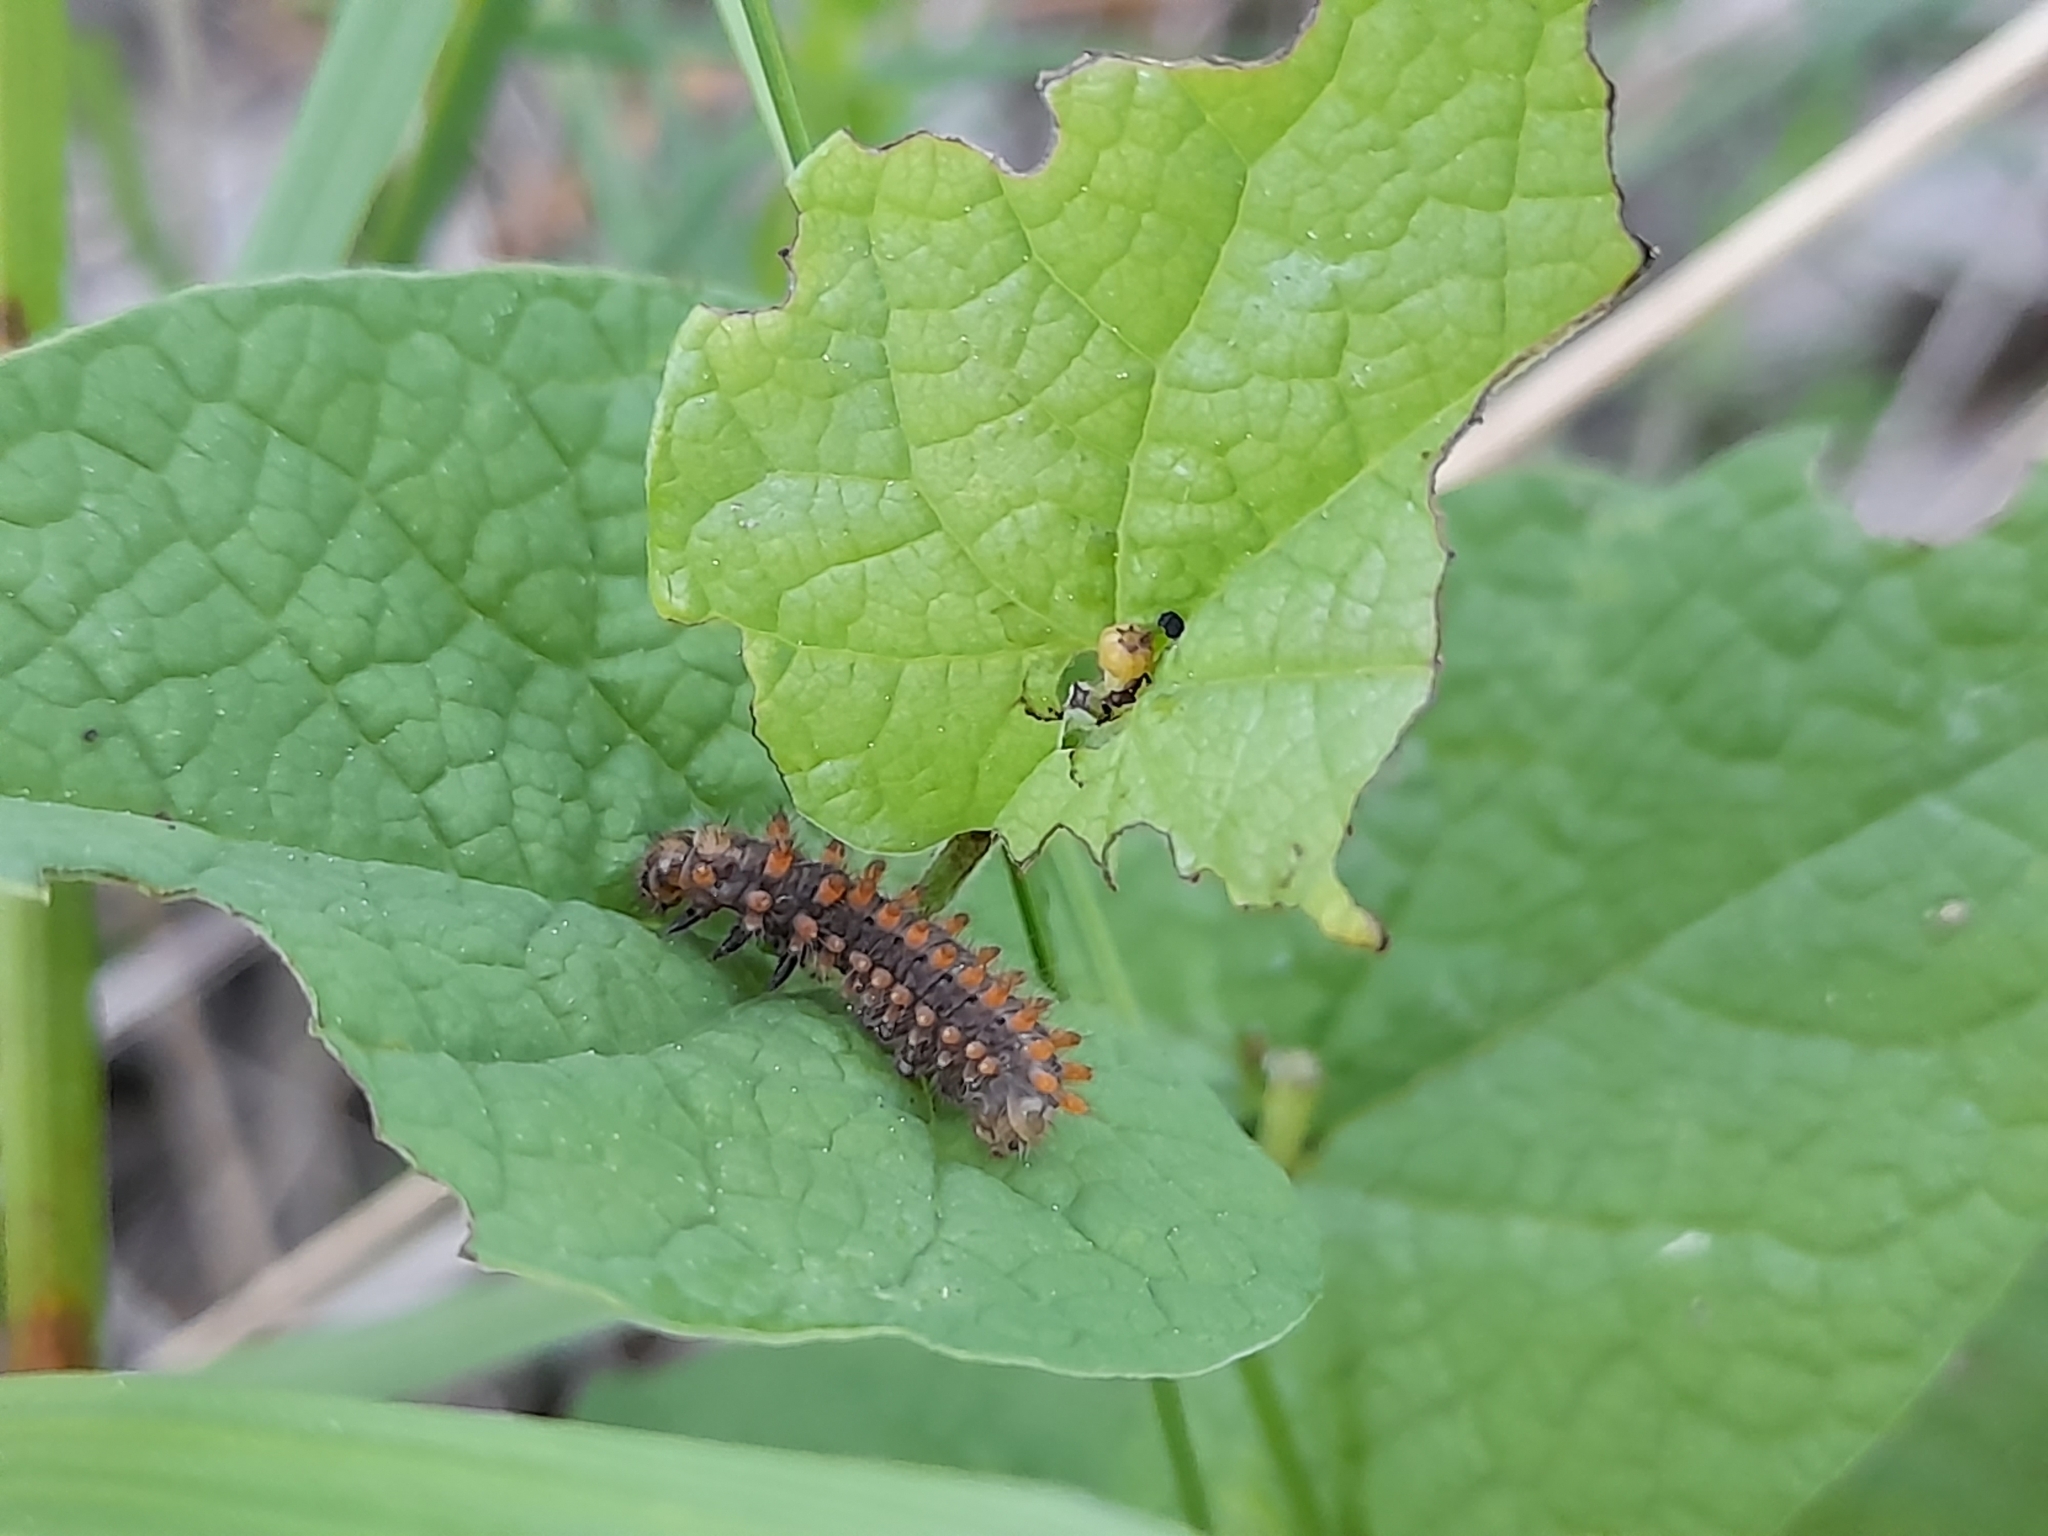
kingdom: Animalia
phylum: Arthropoda
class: Insecta
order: Lepidoptera
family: Papilionidae
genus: Zerynthia
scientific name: Zerynthia polyxena
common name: Southern festoon
